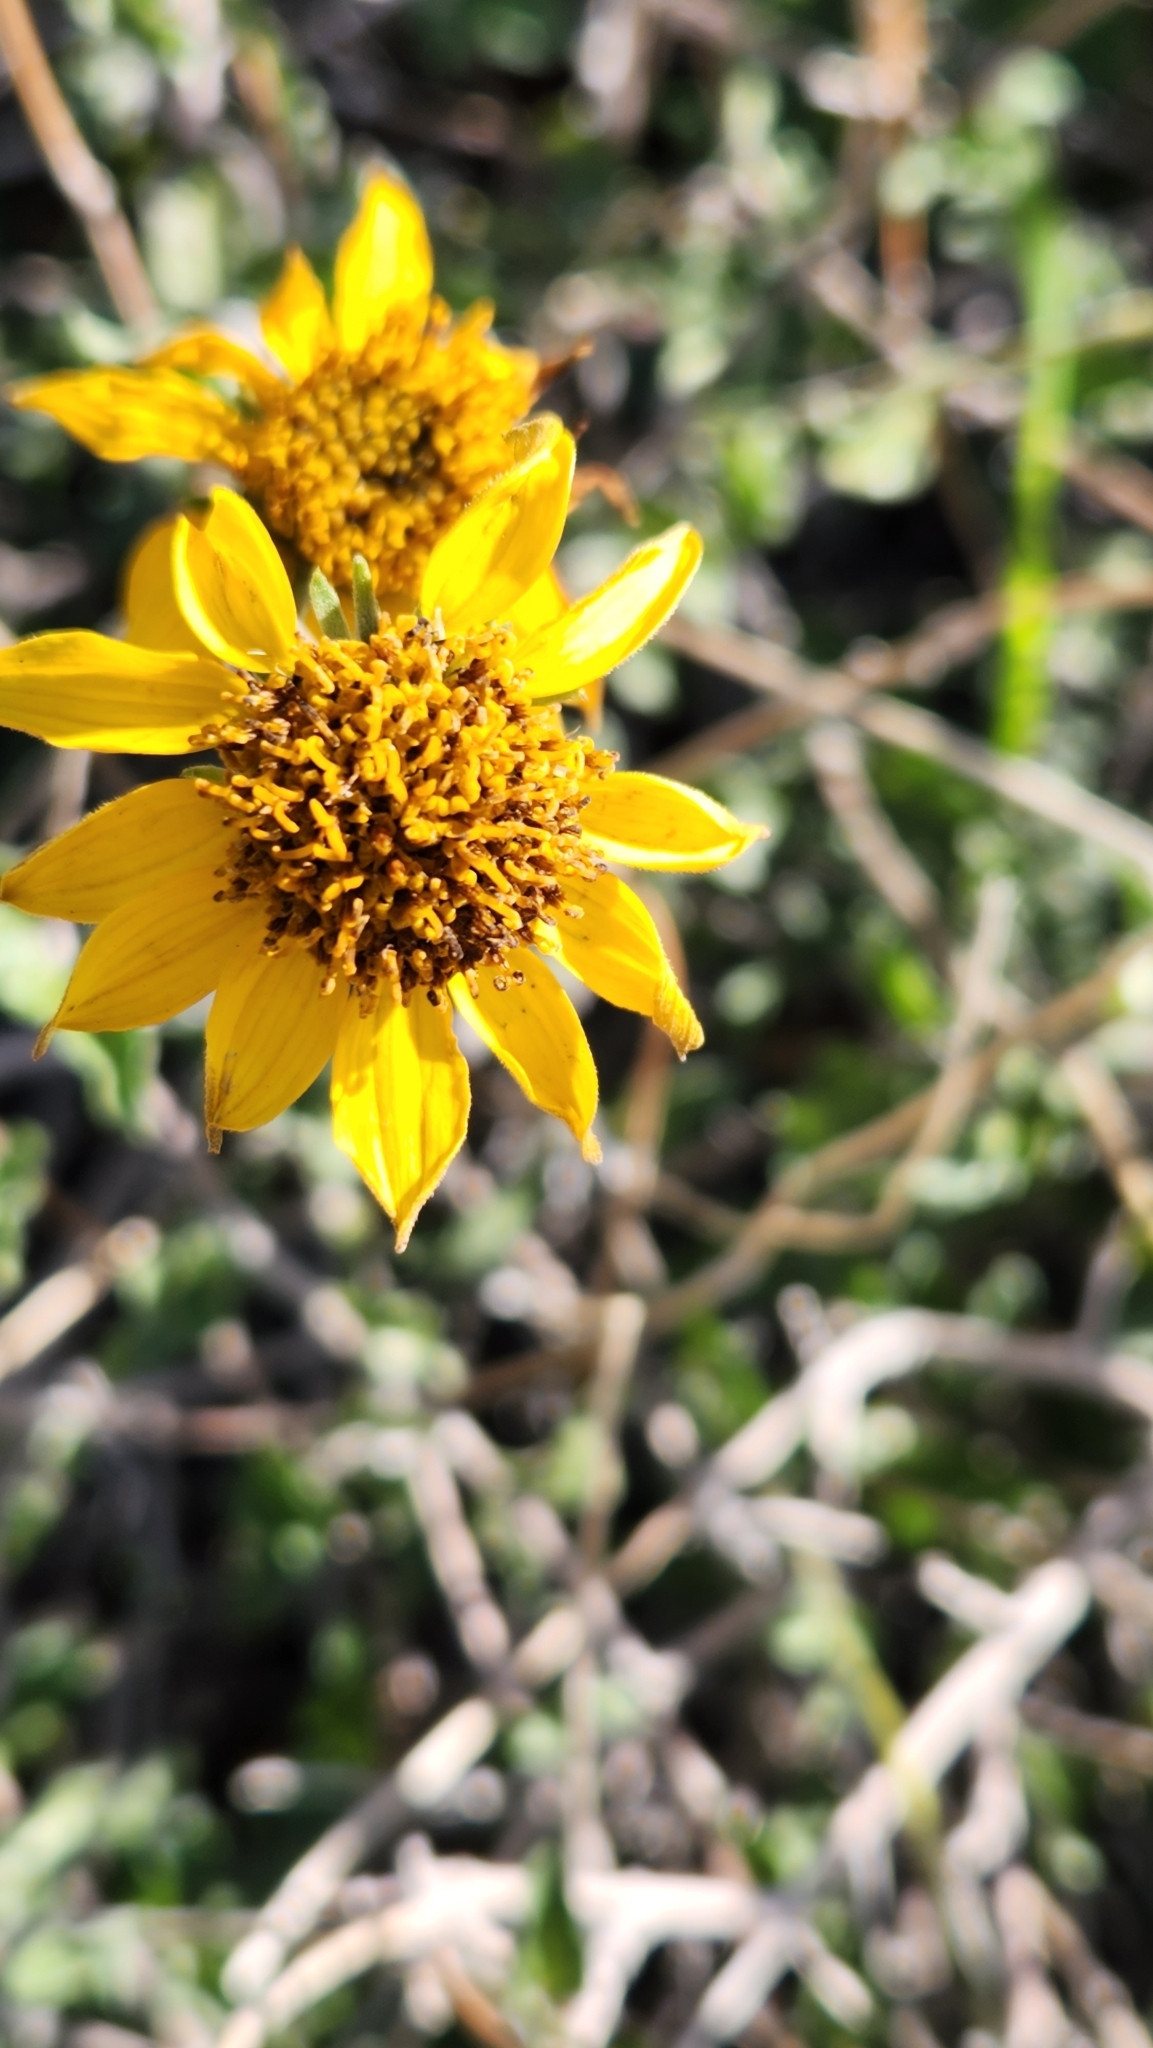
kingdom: Plantae
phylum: Tracheophyta
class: Magnoliopsida
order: Asterales
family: Asteraceae
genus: Bahiopsis
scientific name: Bahiopsis parishii
